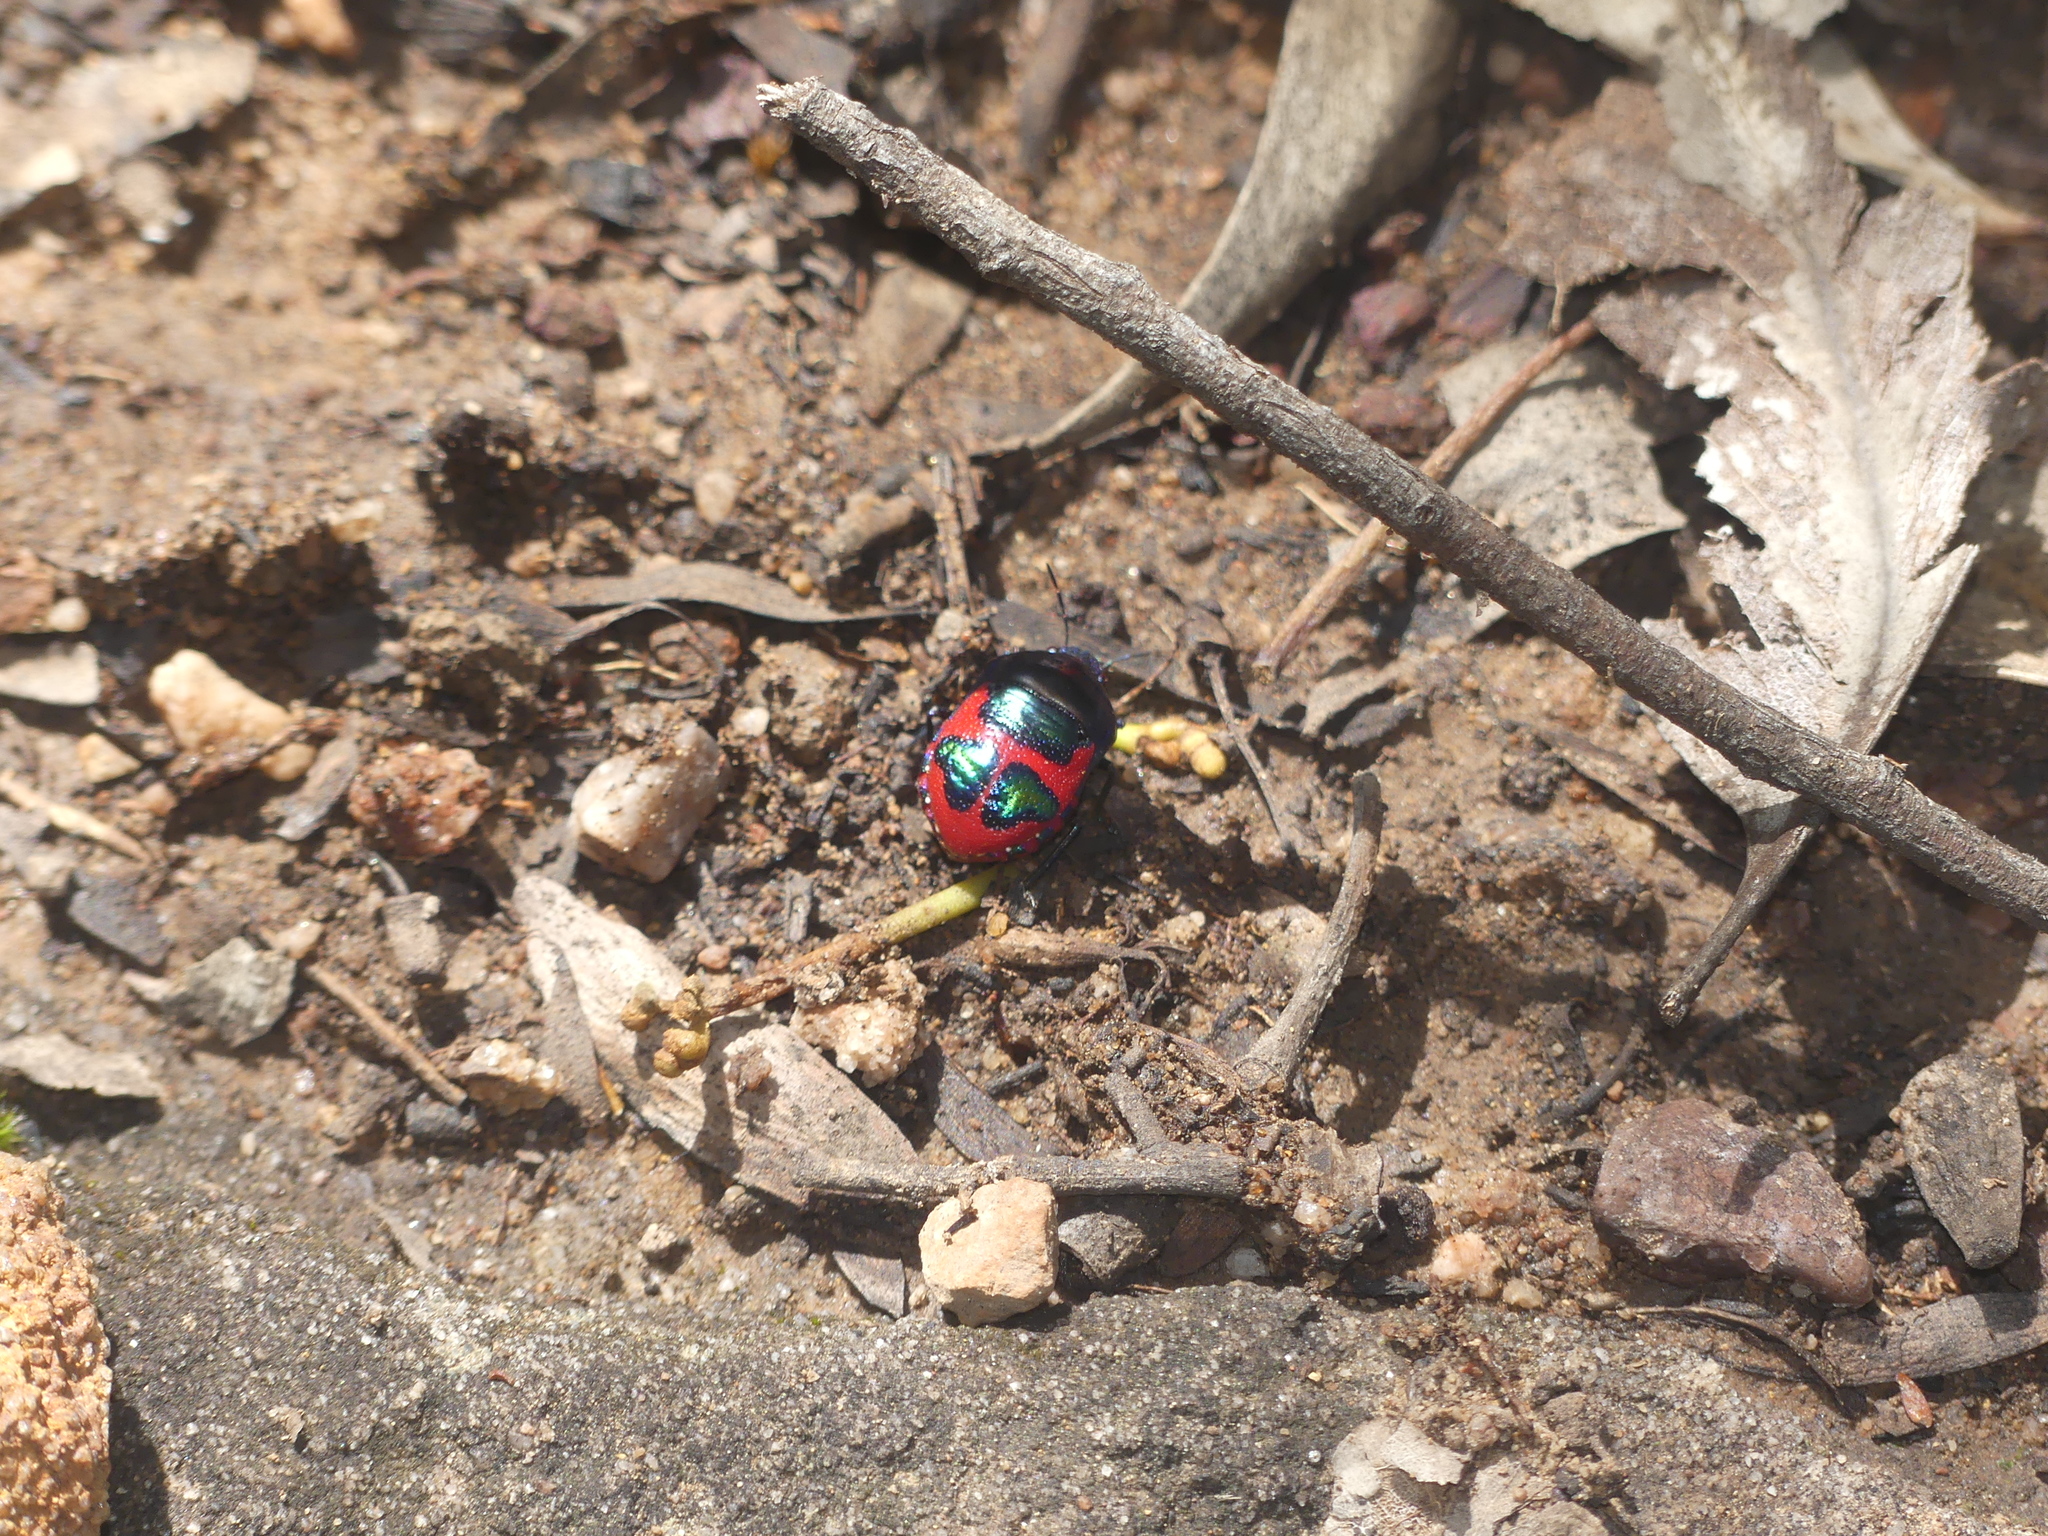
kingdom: Animalia
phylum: Arthropoda
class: Insecta
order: Hemiptera
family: Scutelleridae
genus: Choerocoris
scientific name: Choerocoris paganus
